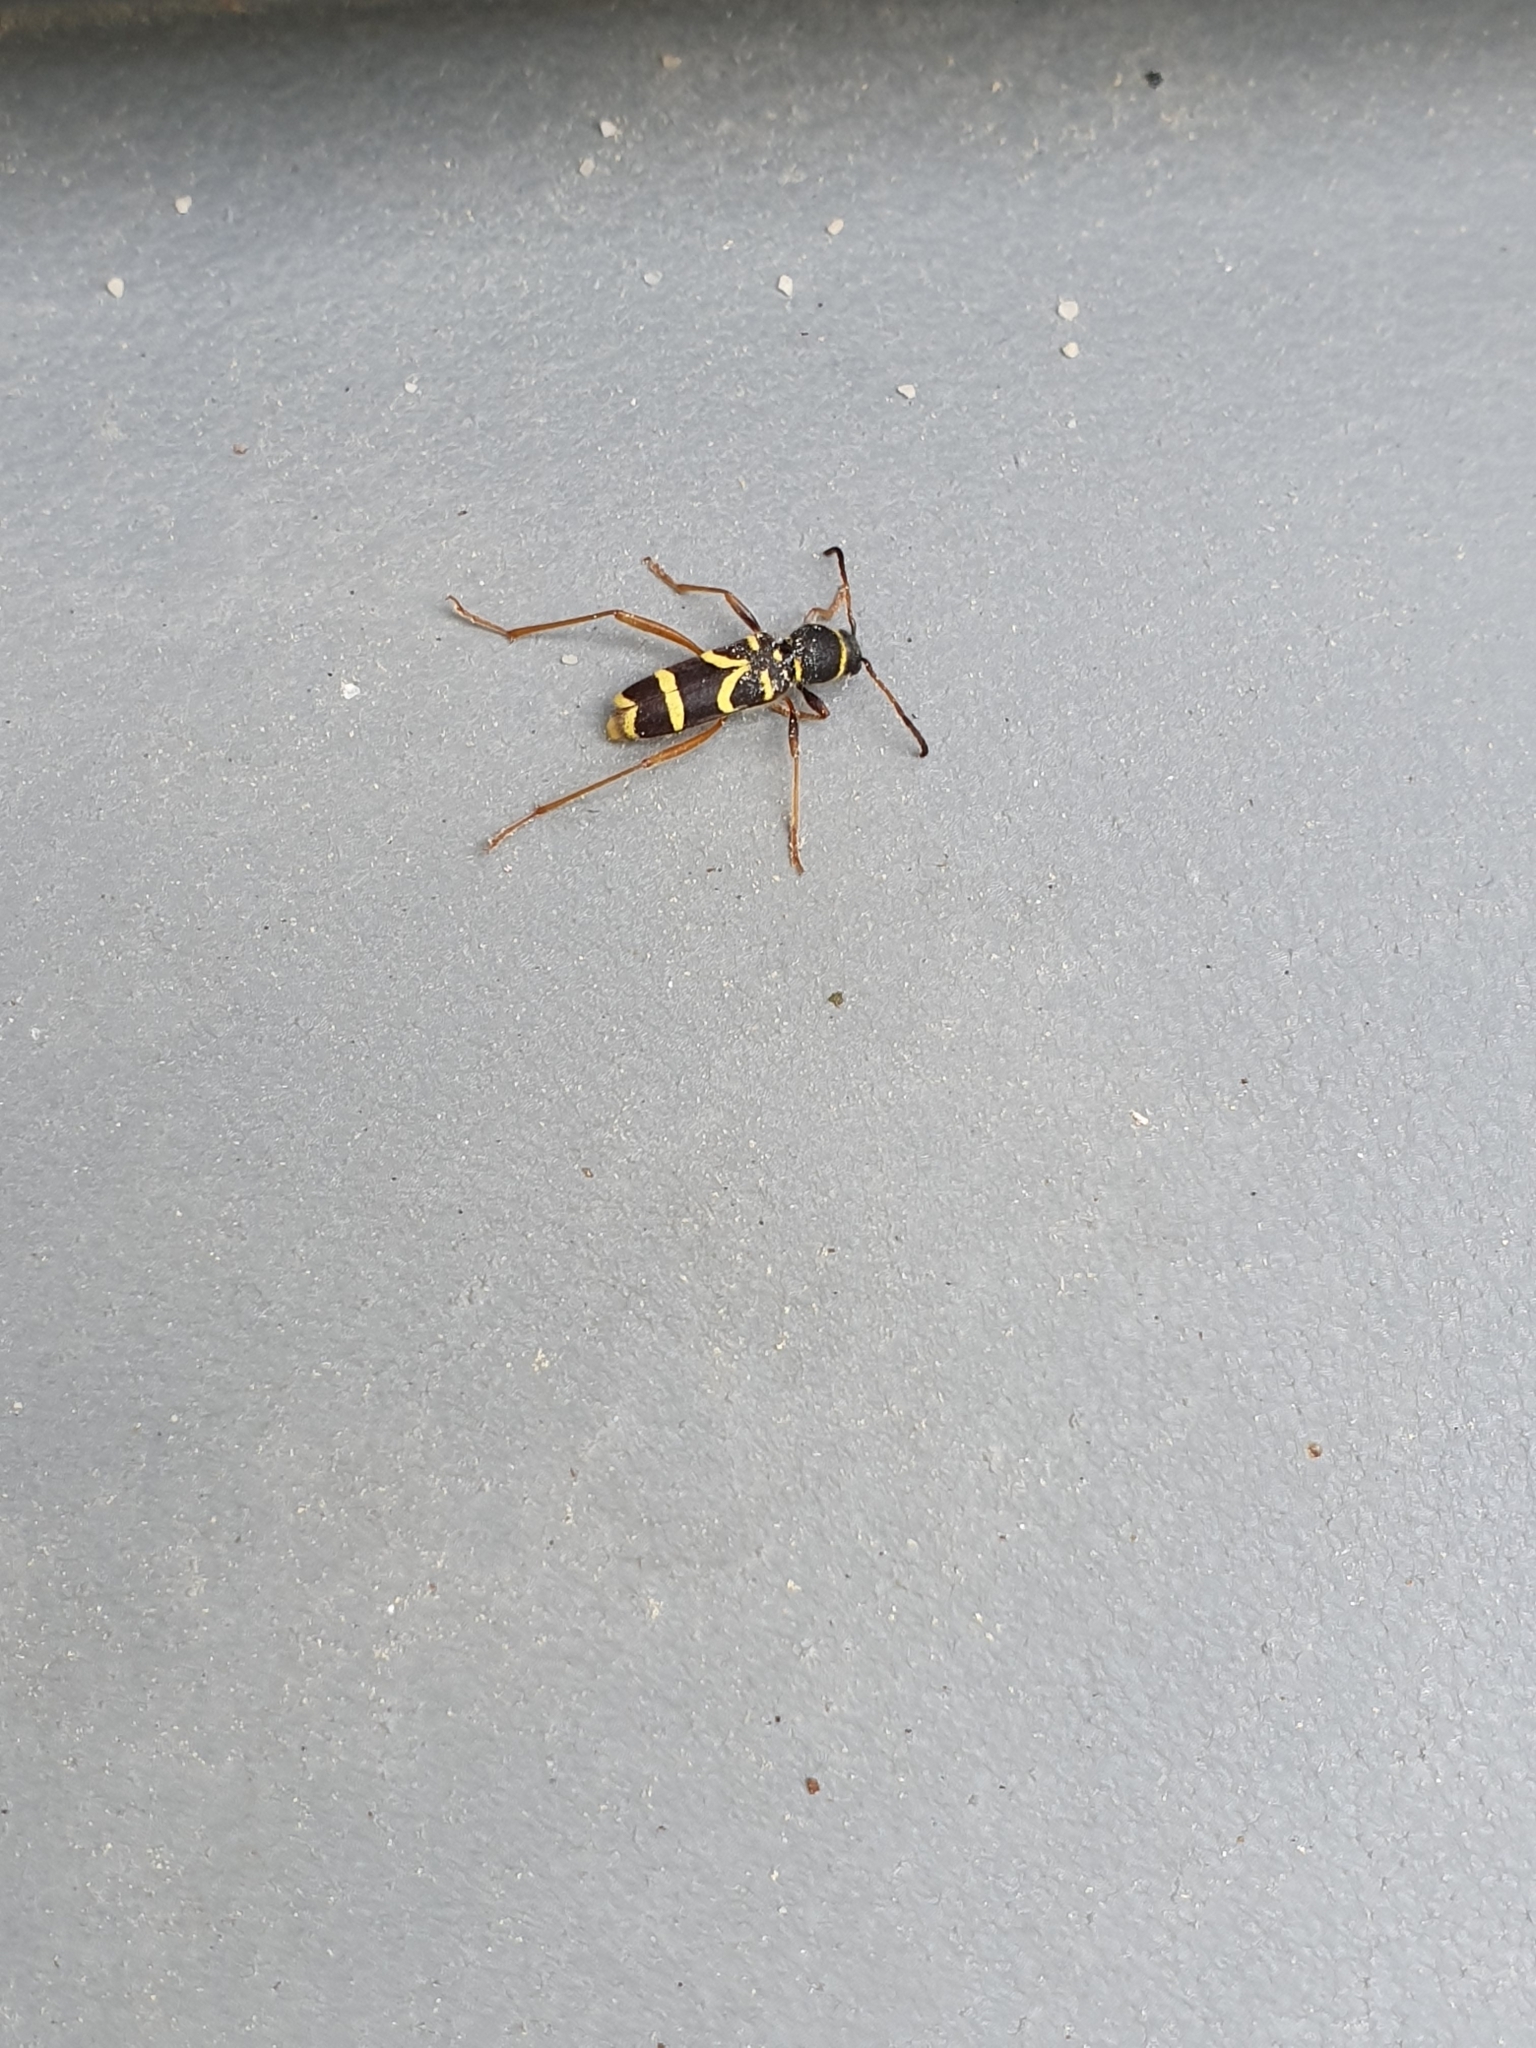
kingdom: Animalia
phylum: Arthropoda
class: Insecta
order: Coleoptera
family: Cerambycidae
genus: Clytus
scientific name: Clytus arietis
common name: Wasp beetle
